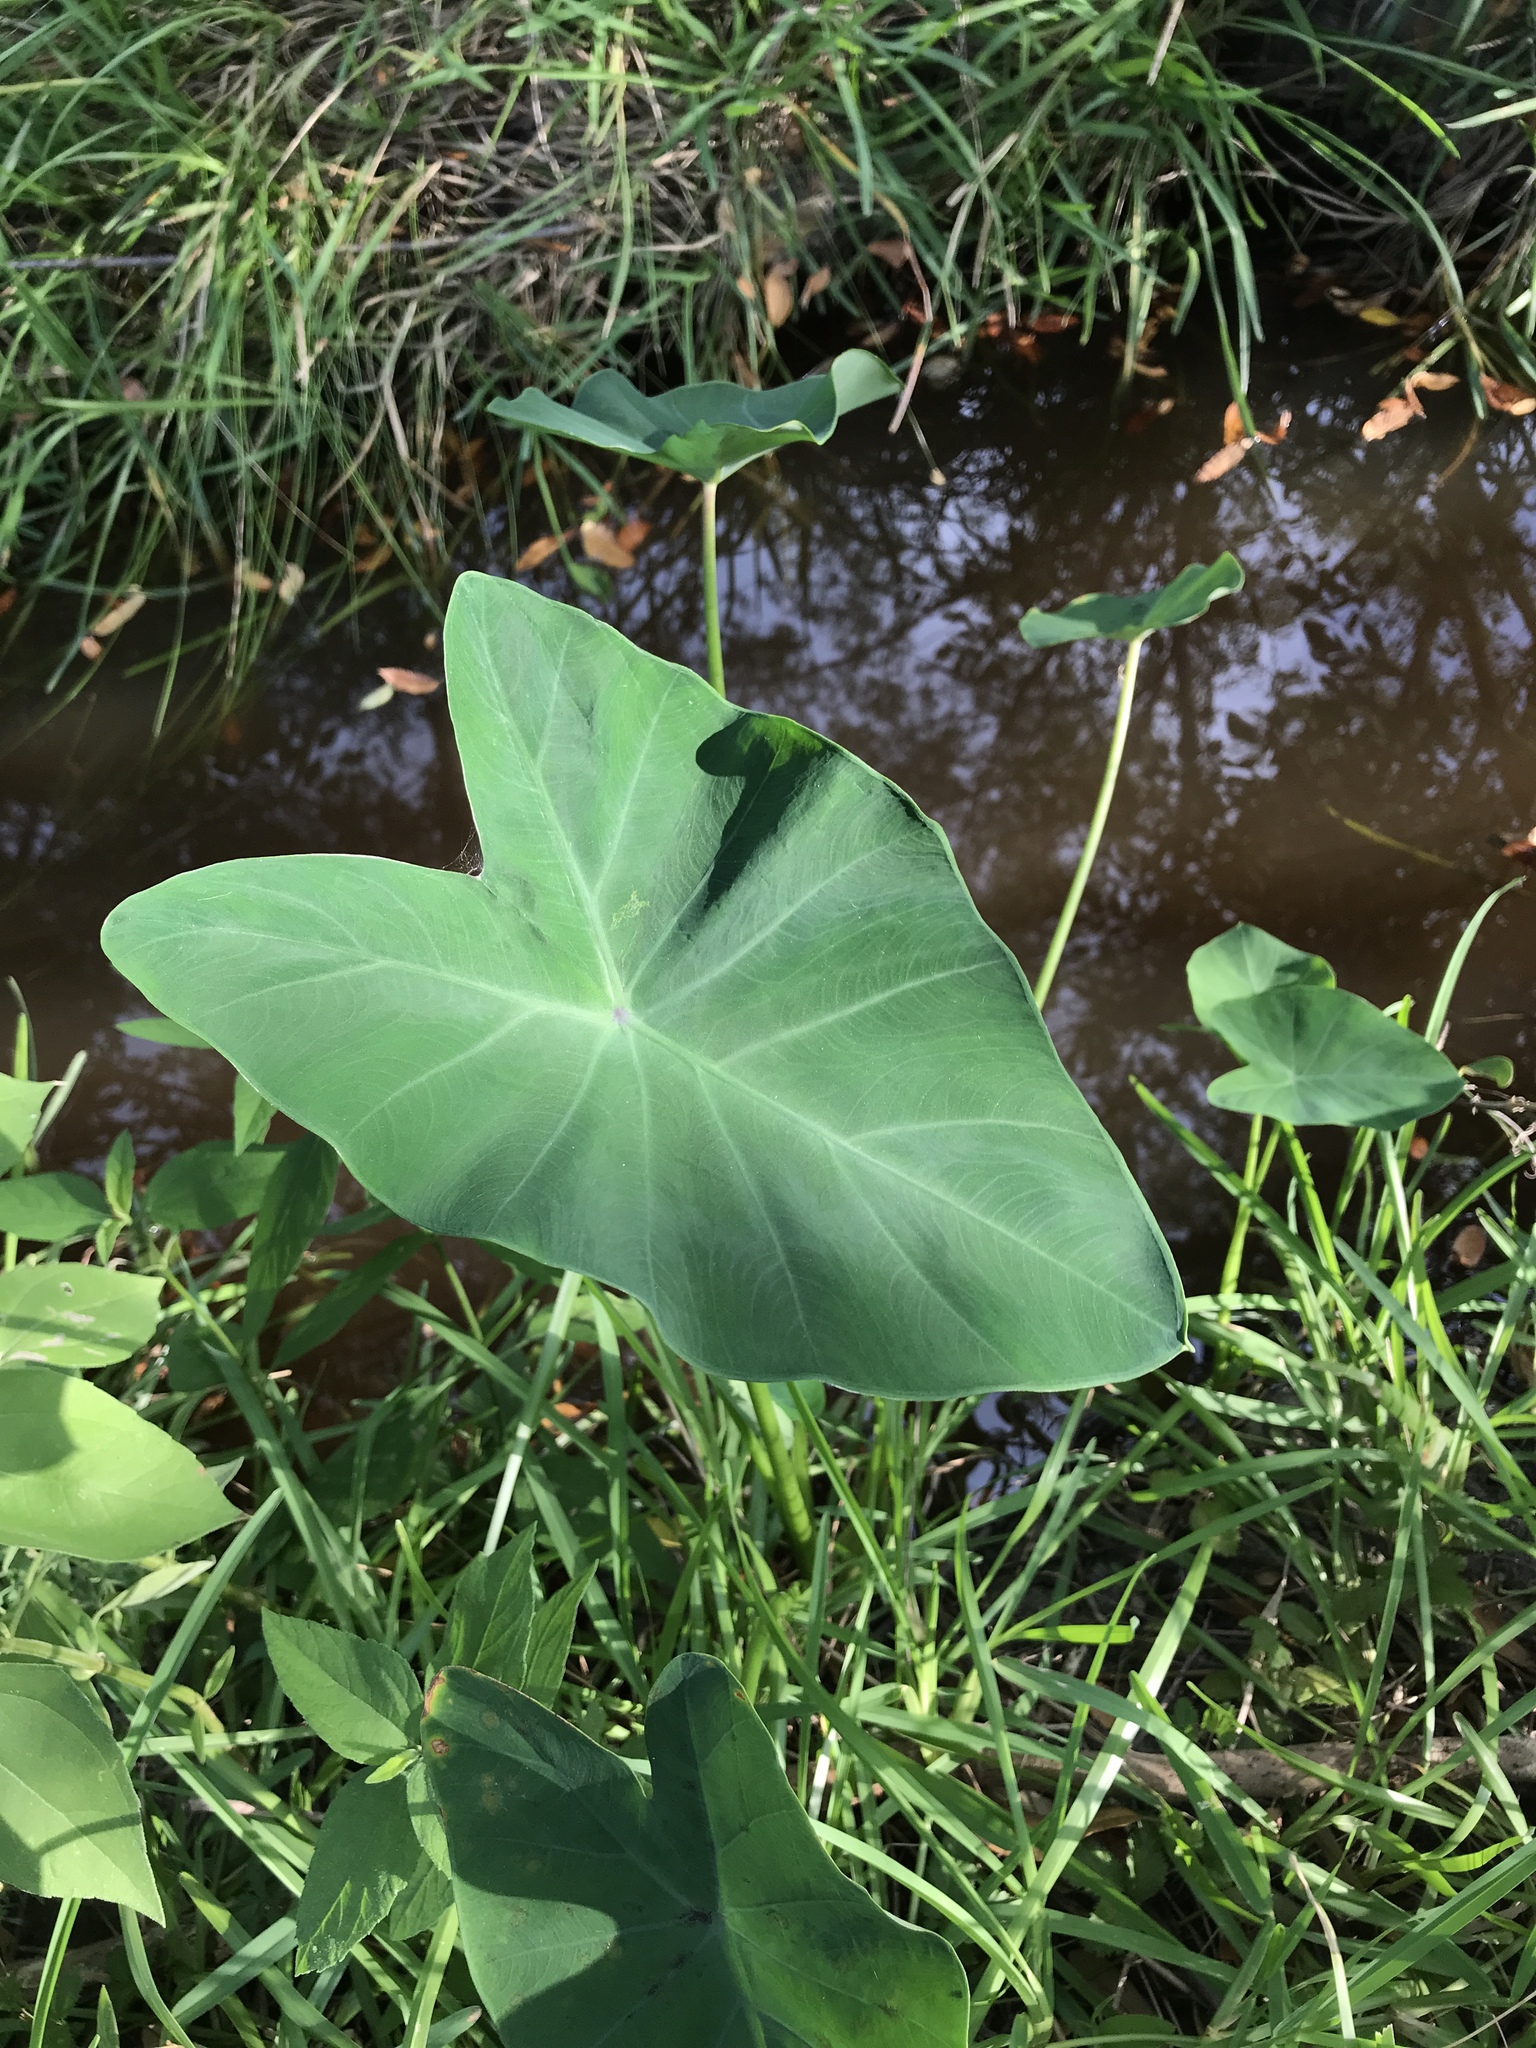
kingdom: Plantae
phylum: Tracheophyta
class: Liliopsida
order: Alismatales
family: Araceae
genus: Colocasia
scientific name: Colocasia esculenta
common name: Taro
